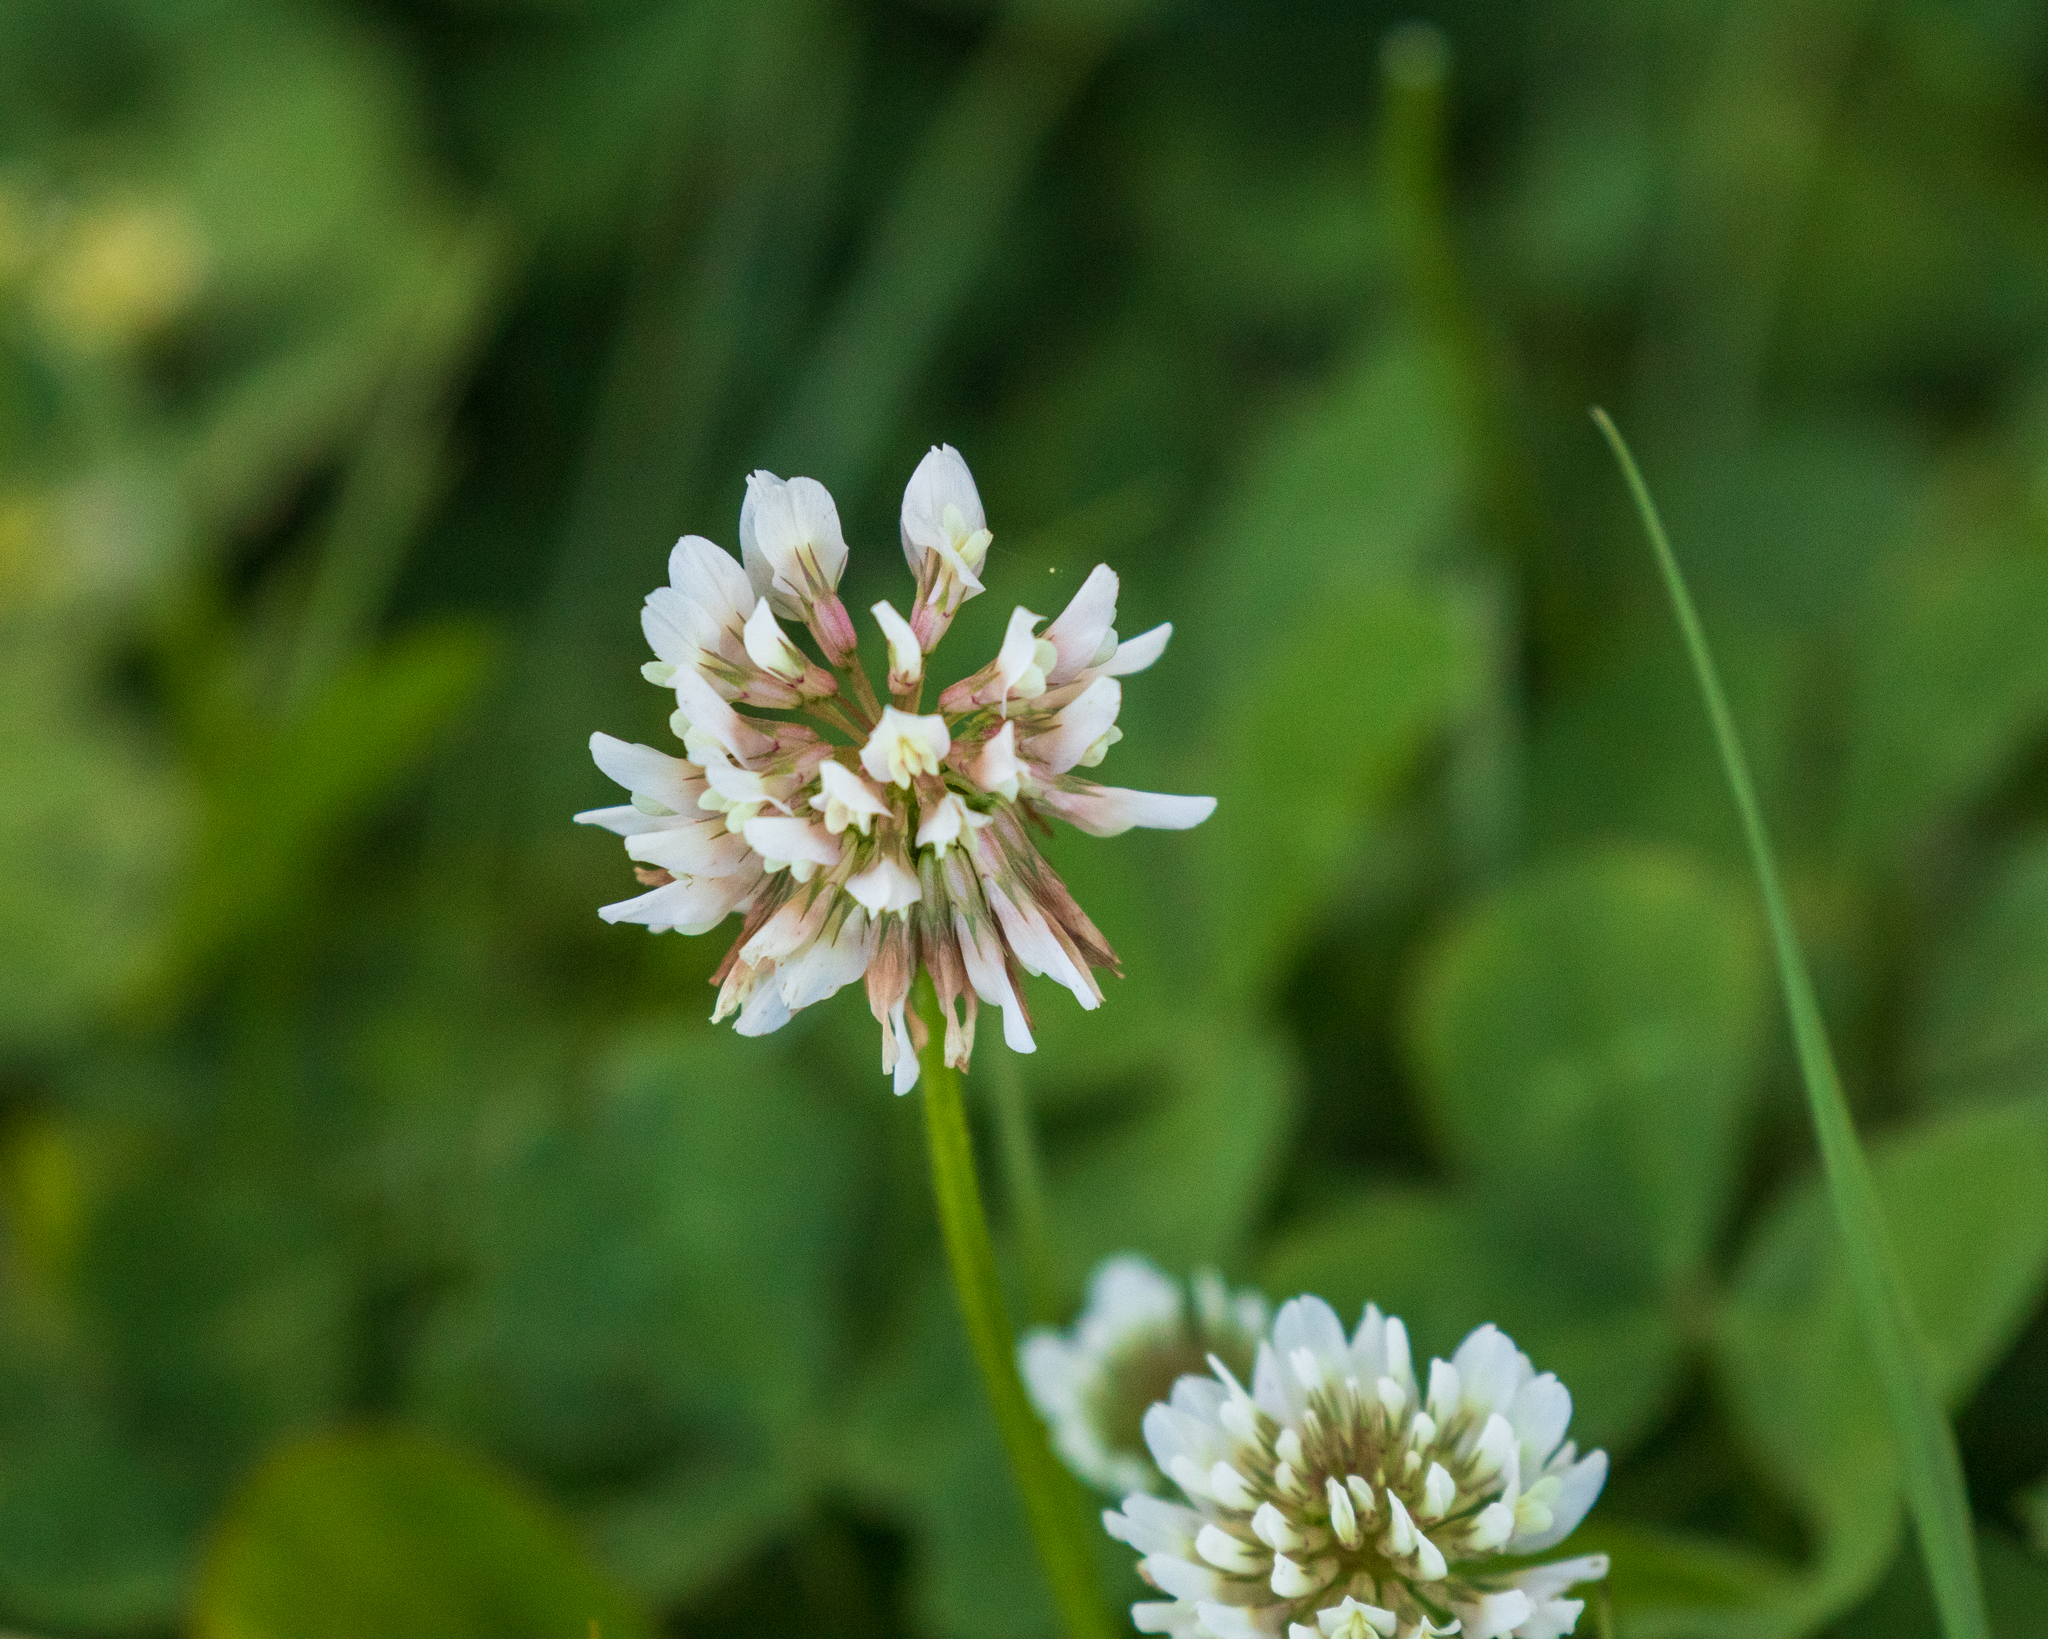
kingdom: Plantae
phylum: Tracheophyta
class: Magnoliopsida
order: Fabales
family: Fabaceae
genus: Trifolium
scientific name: Trifolium repens
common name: White clover
